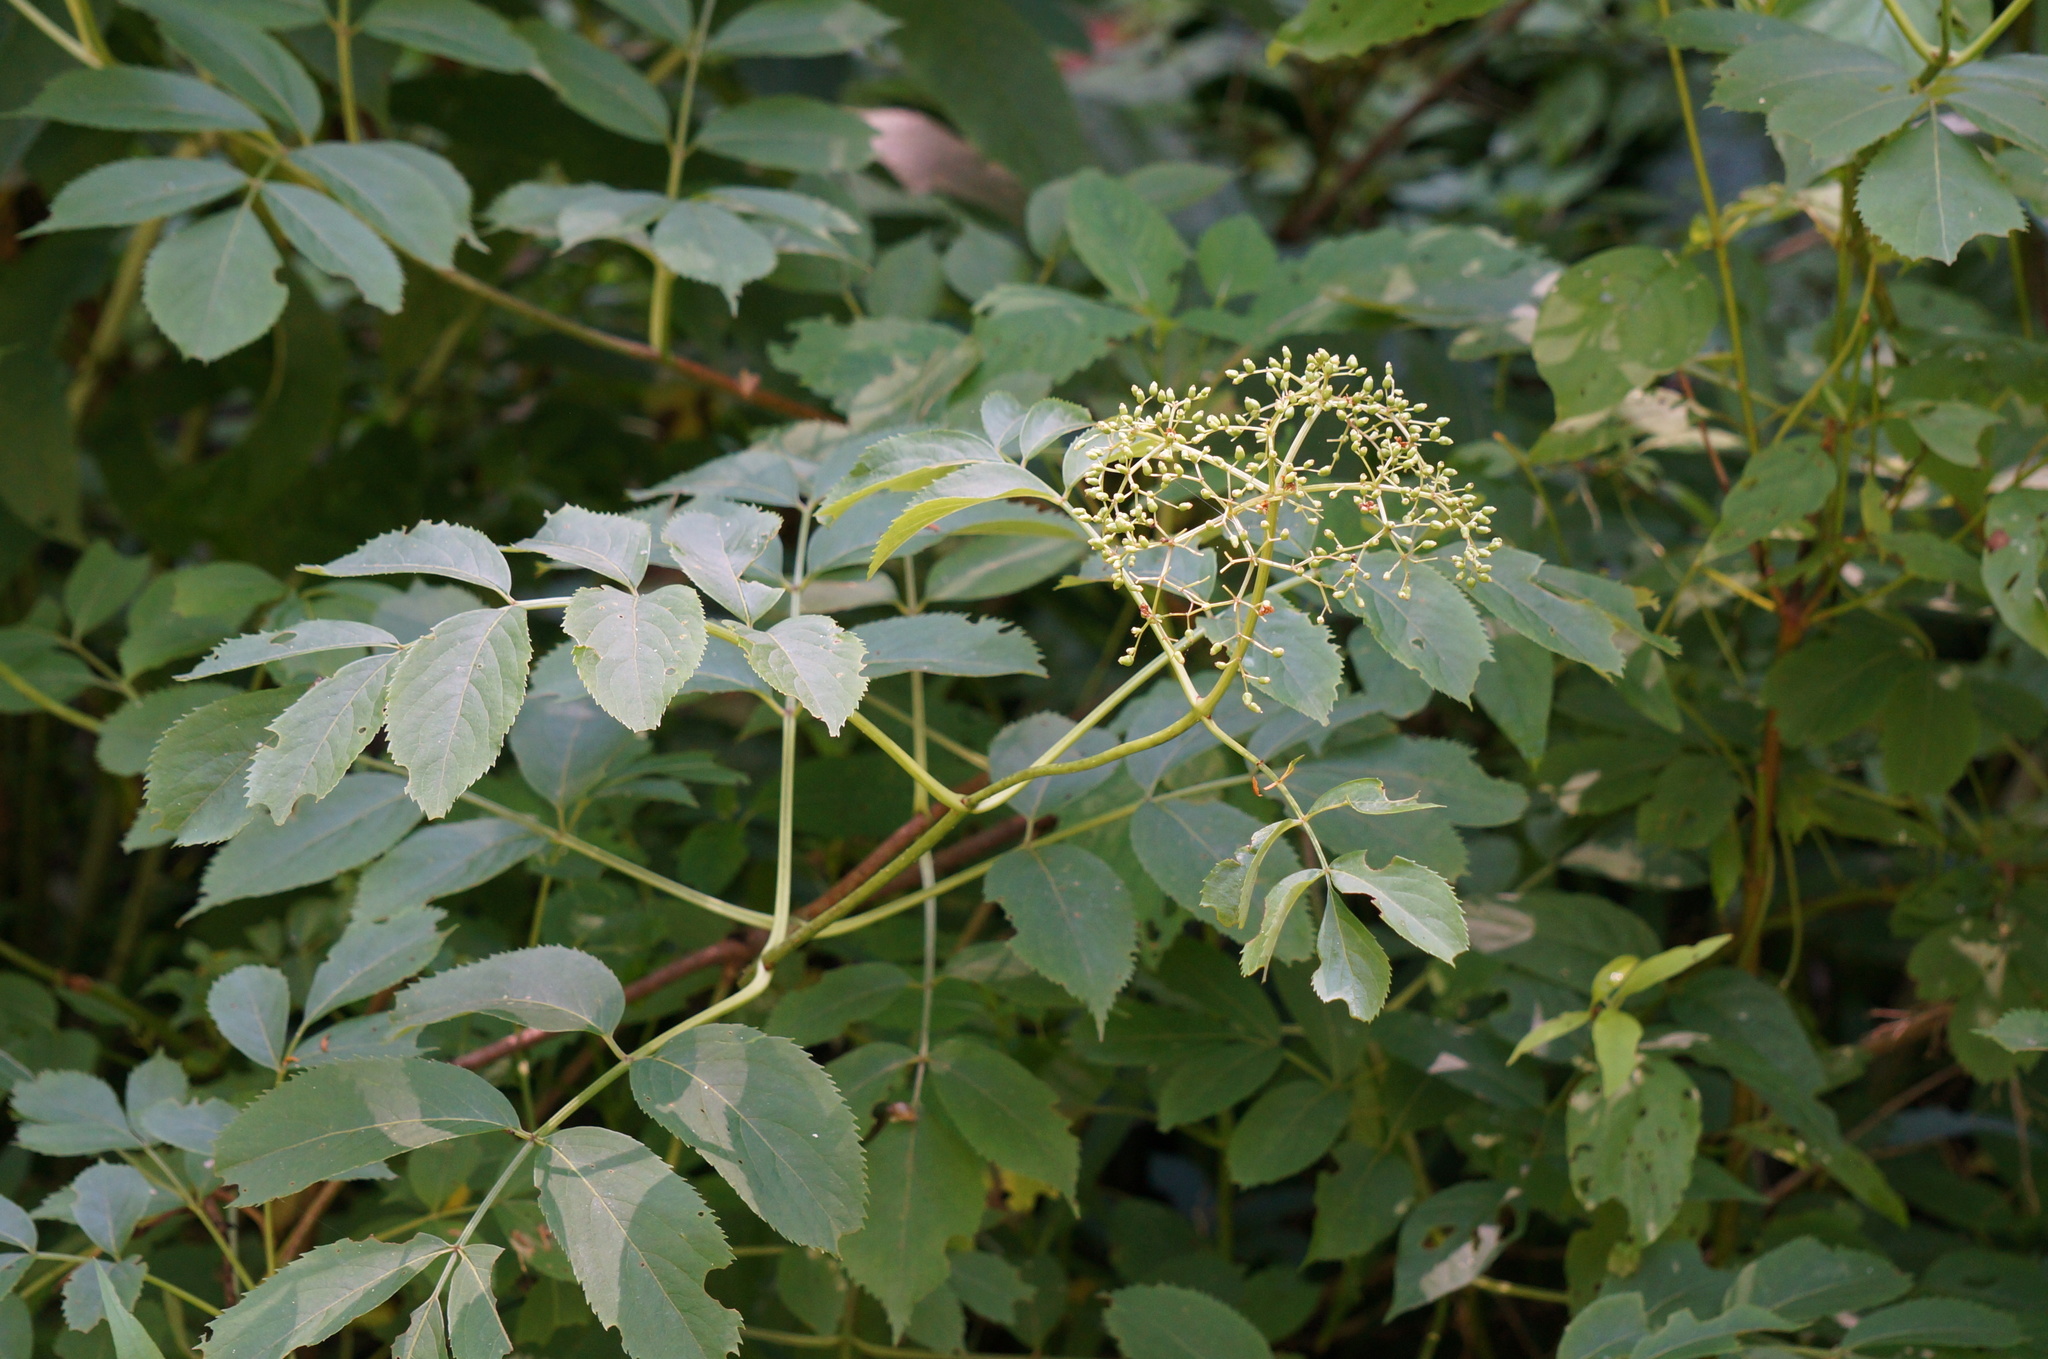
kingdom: Plantae
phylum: Tracheophyta
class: Magnoliopsida
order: Dipsacales
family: Viburnaceae
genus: Sambucus
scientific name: Sambucus canadensis
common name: American elder
